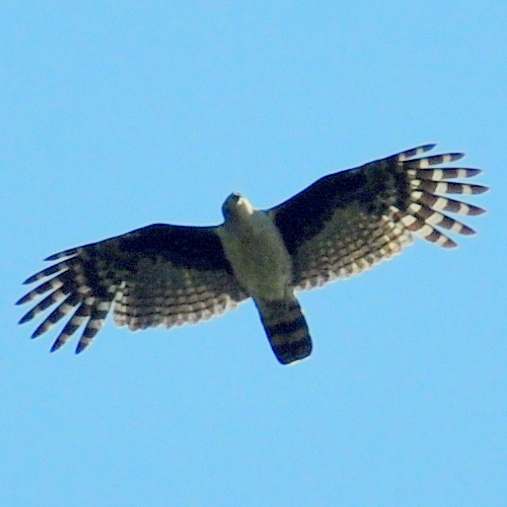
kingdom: Animalia
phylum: Chordata
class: Aves
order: Accipitriformes
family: Accipitridae
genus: Leptodon
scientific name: Leptodon cayanensis
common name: Gray-headed kite
